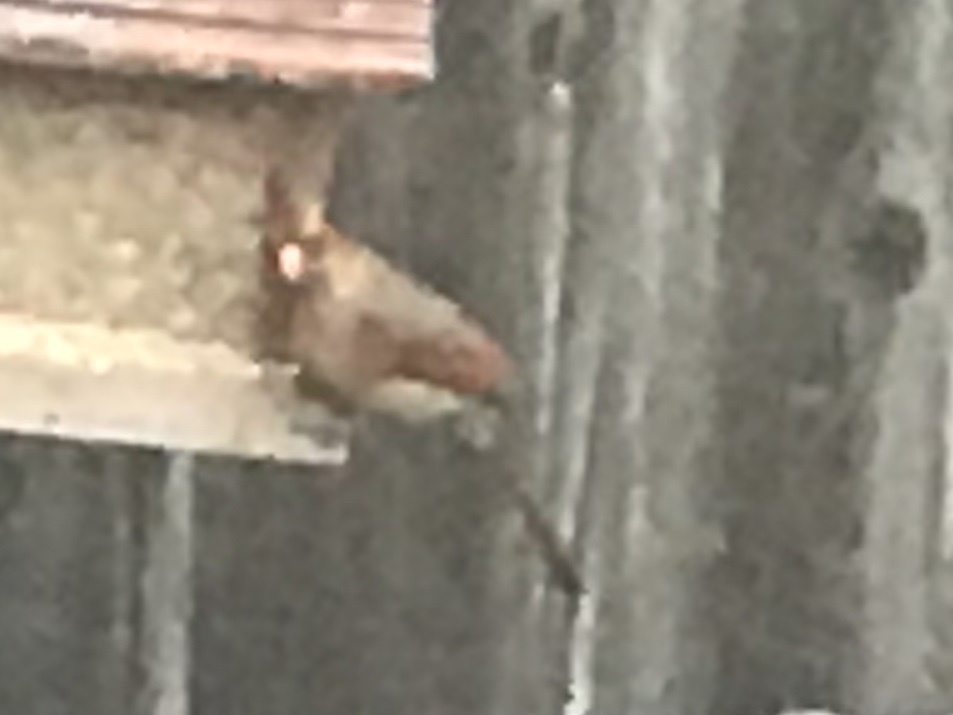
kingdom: Animalia
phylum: Chordata
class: Aves
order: Passeriformes
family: Cardinalidae
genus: Cardinalis
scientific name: Cardinalis cardinalis
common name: Northern cardinal
